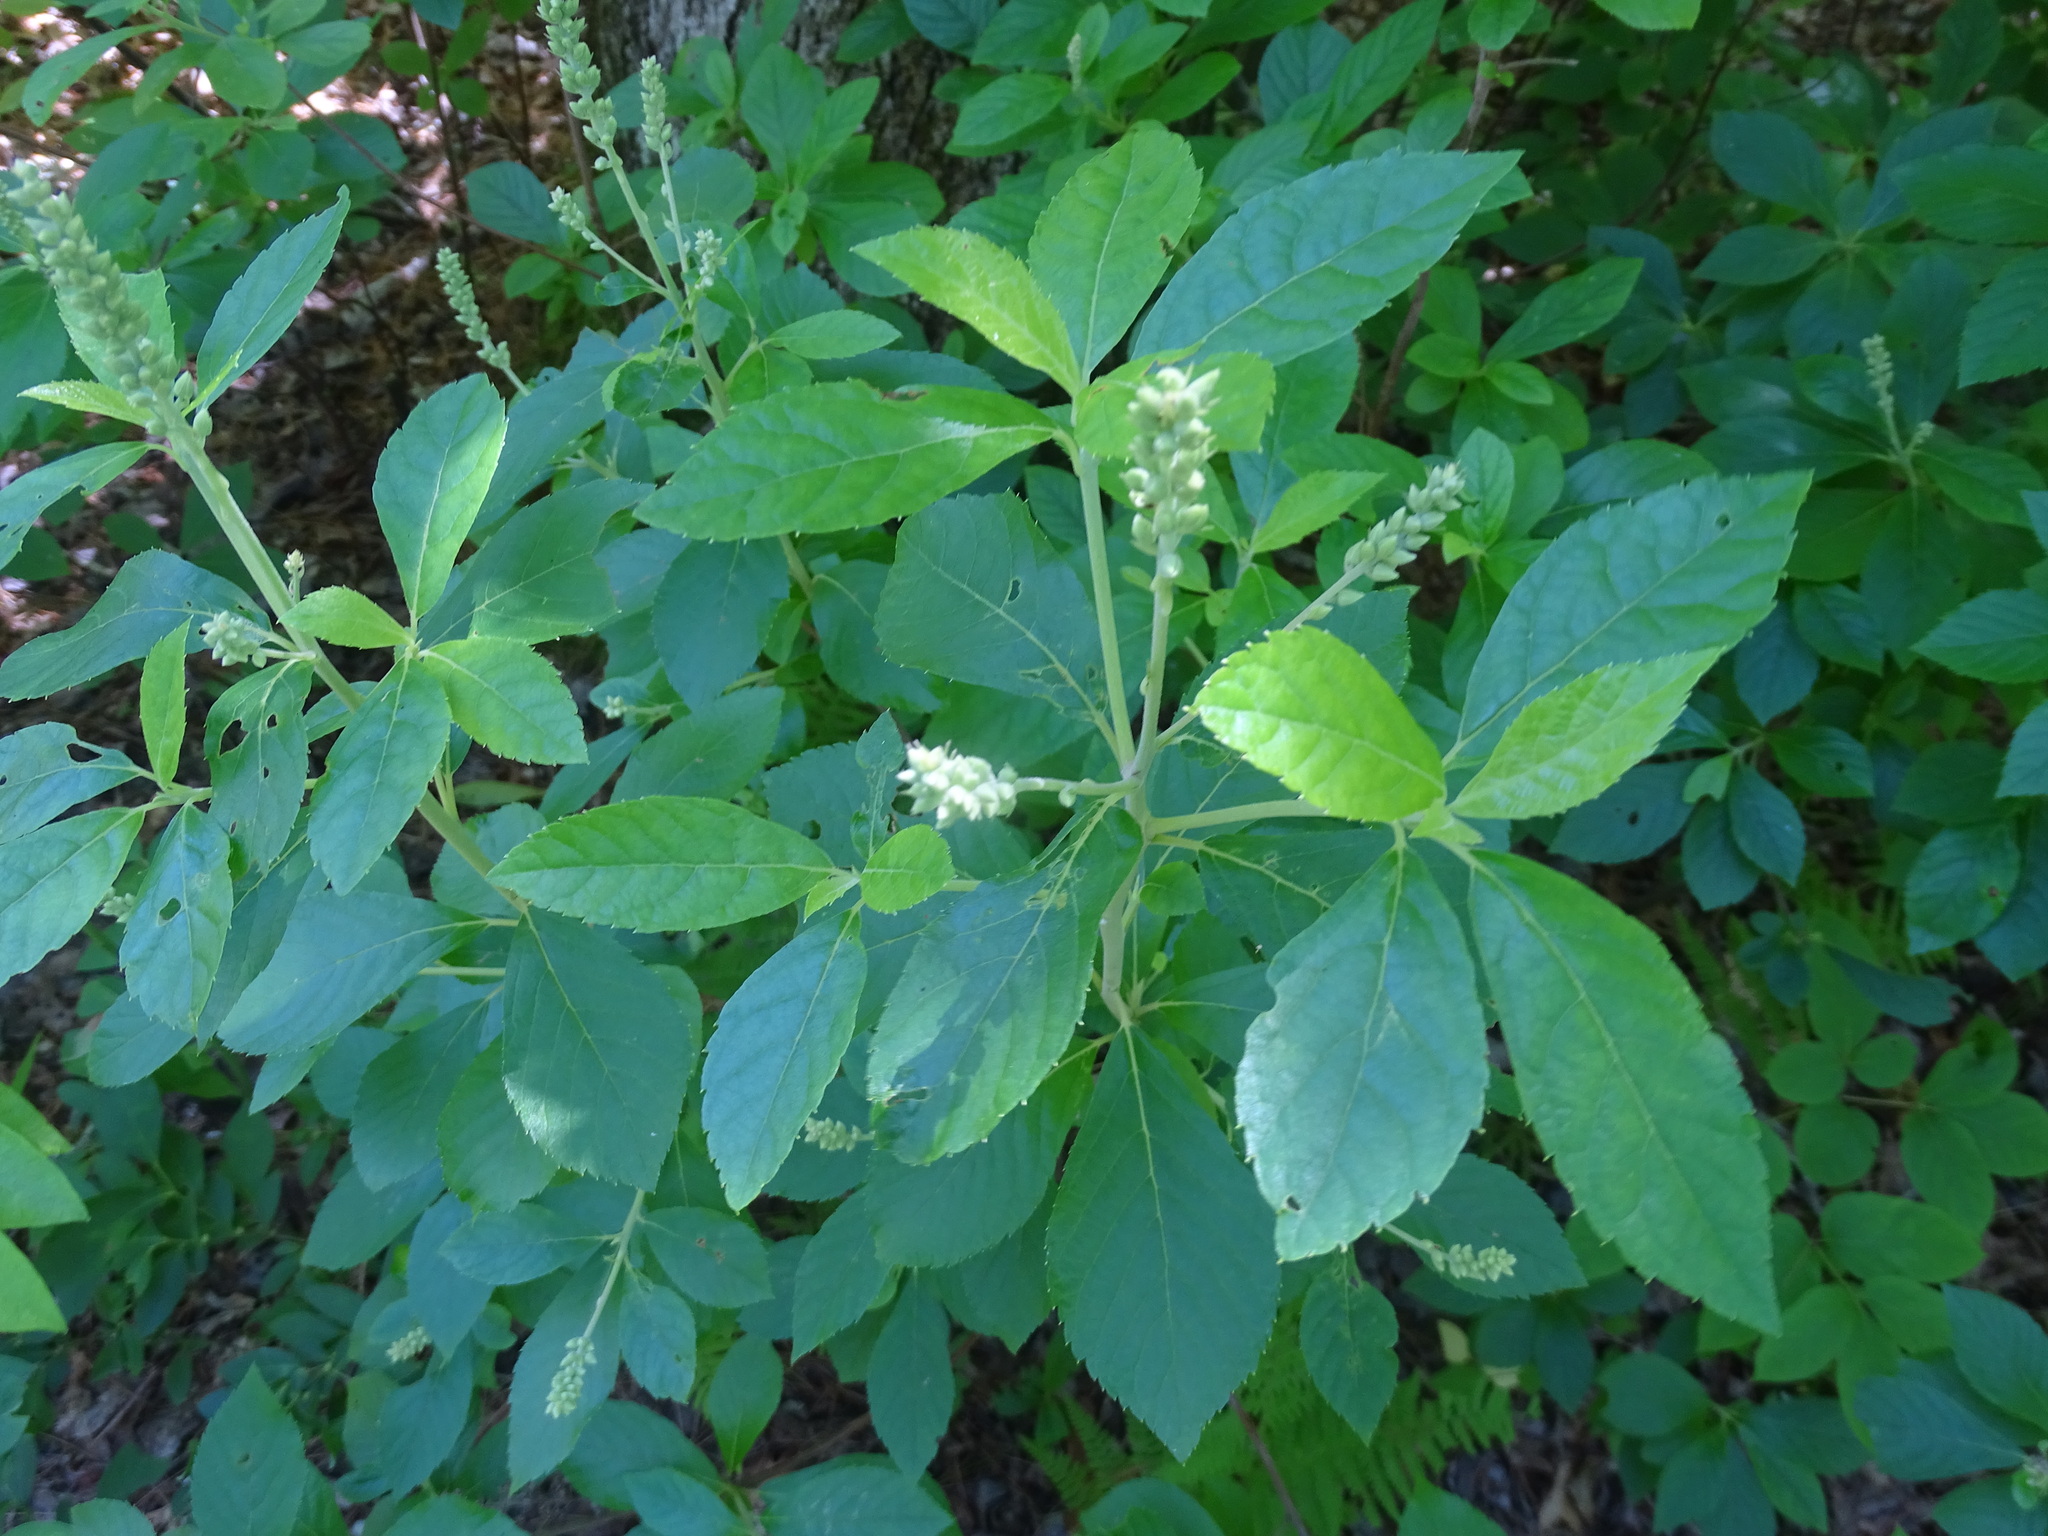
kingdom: Plantae
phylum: Tracheophyta
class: Magnoliopsida
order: Ericales
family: Clethraceae
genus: Clethra
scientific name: Clethra alnifolia
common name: Sweet pepperbush
